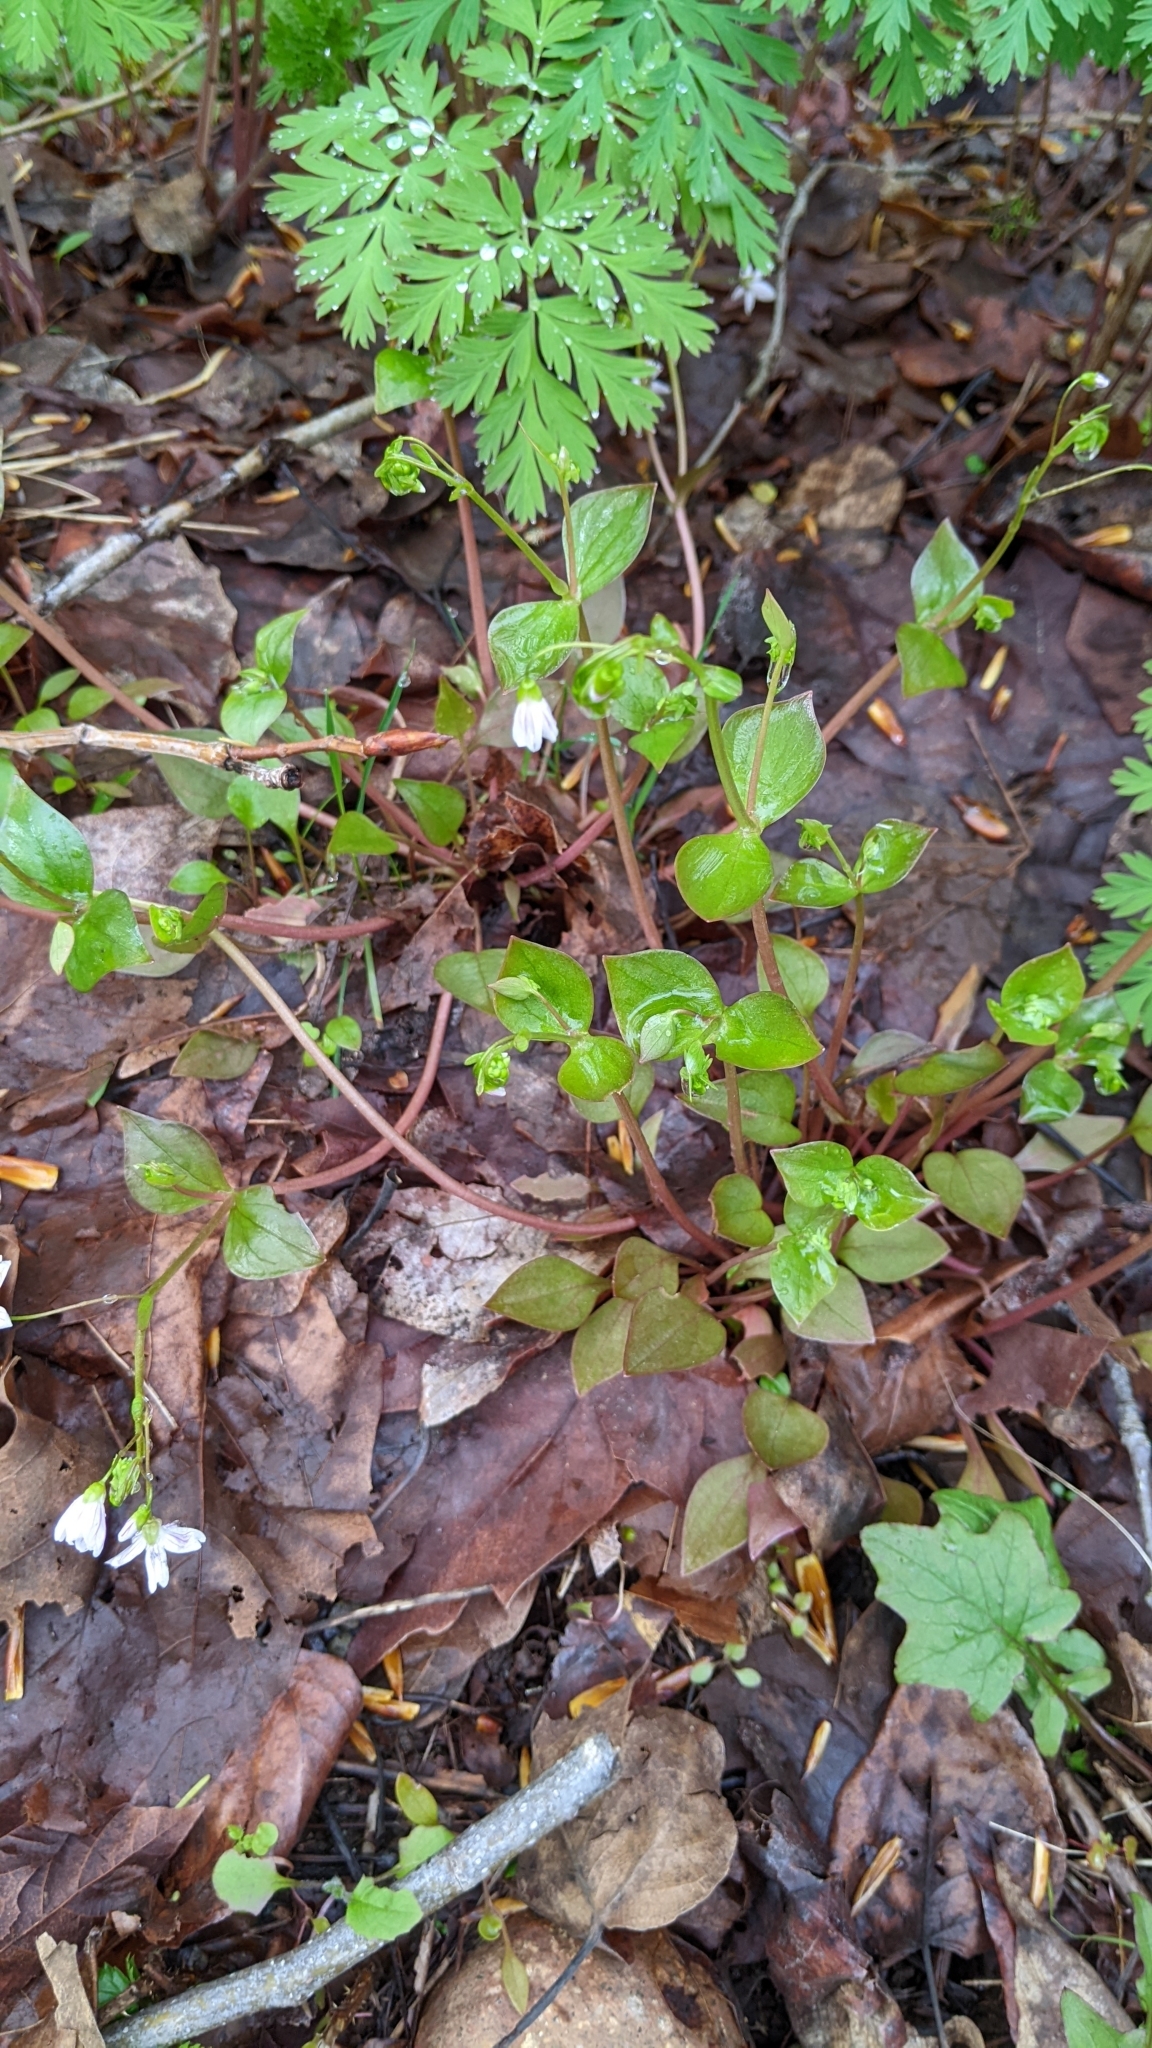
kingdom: Plantae
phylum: Tracheophyta
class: Magnoliopsida
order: Caryophyllales
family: Montiaceae
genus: Claytonia
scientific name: Claytonia sibirica
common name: Pink purslane
